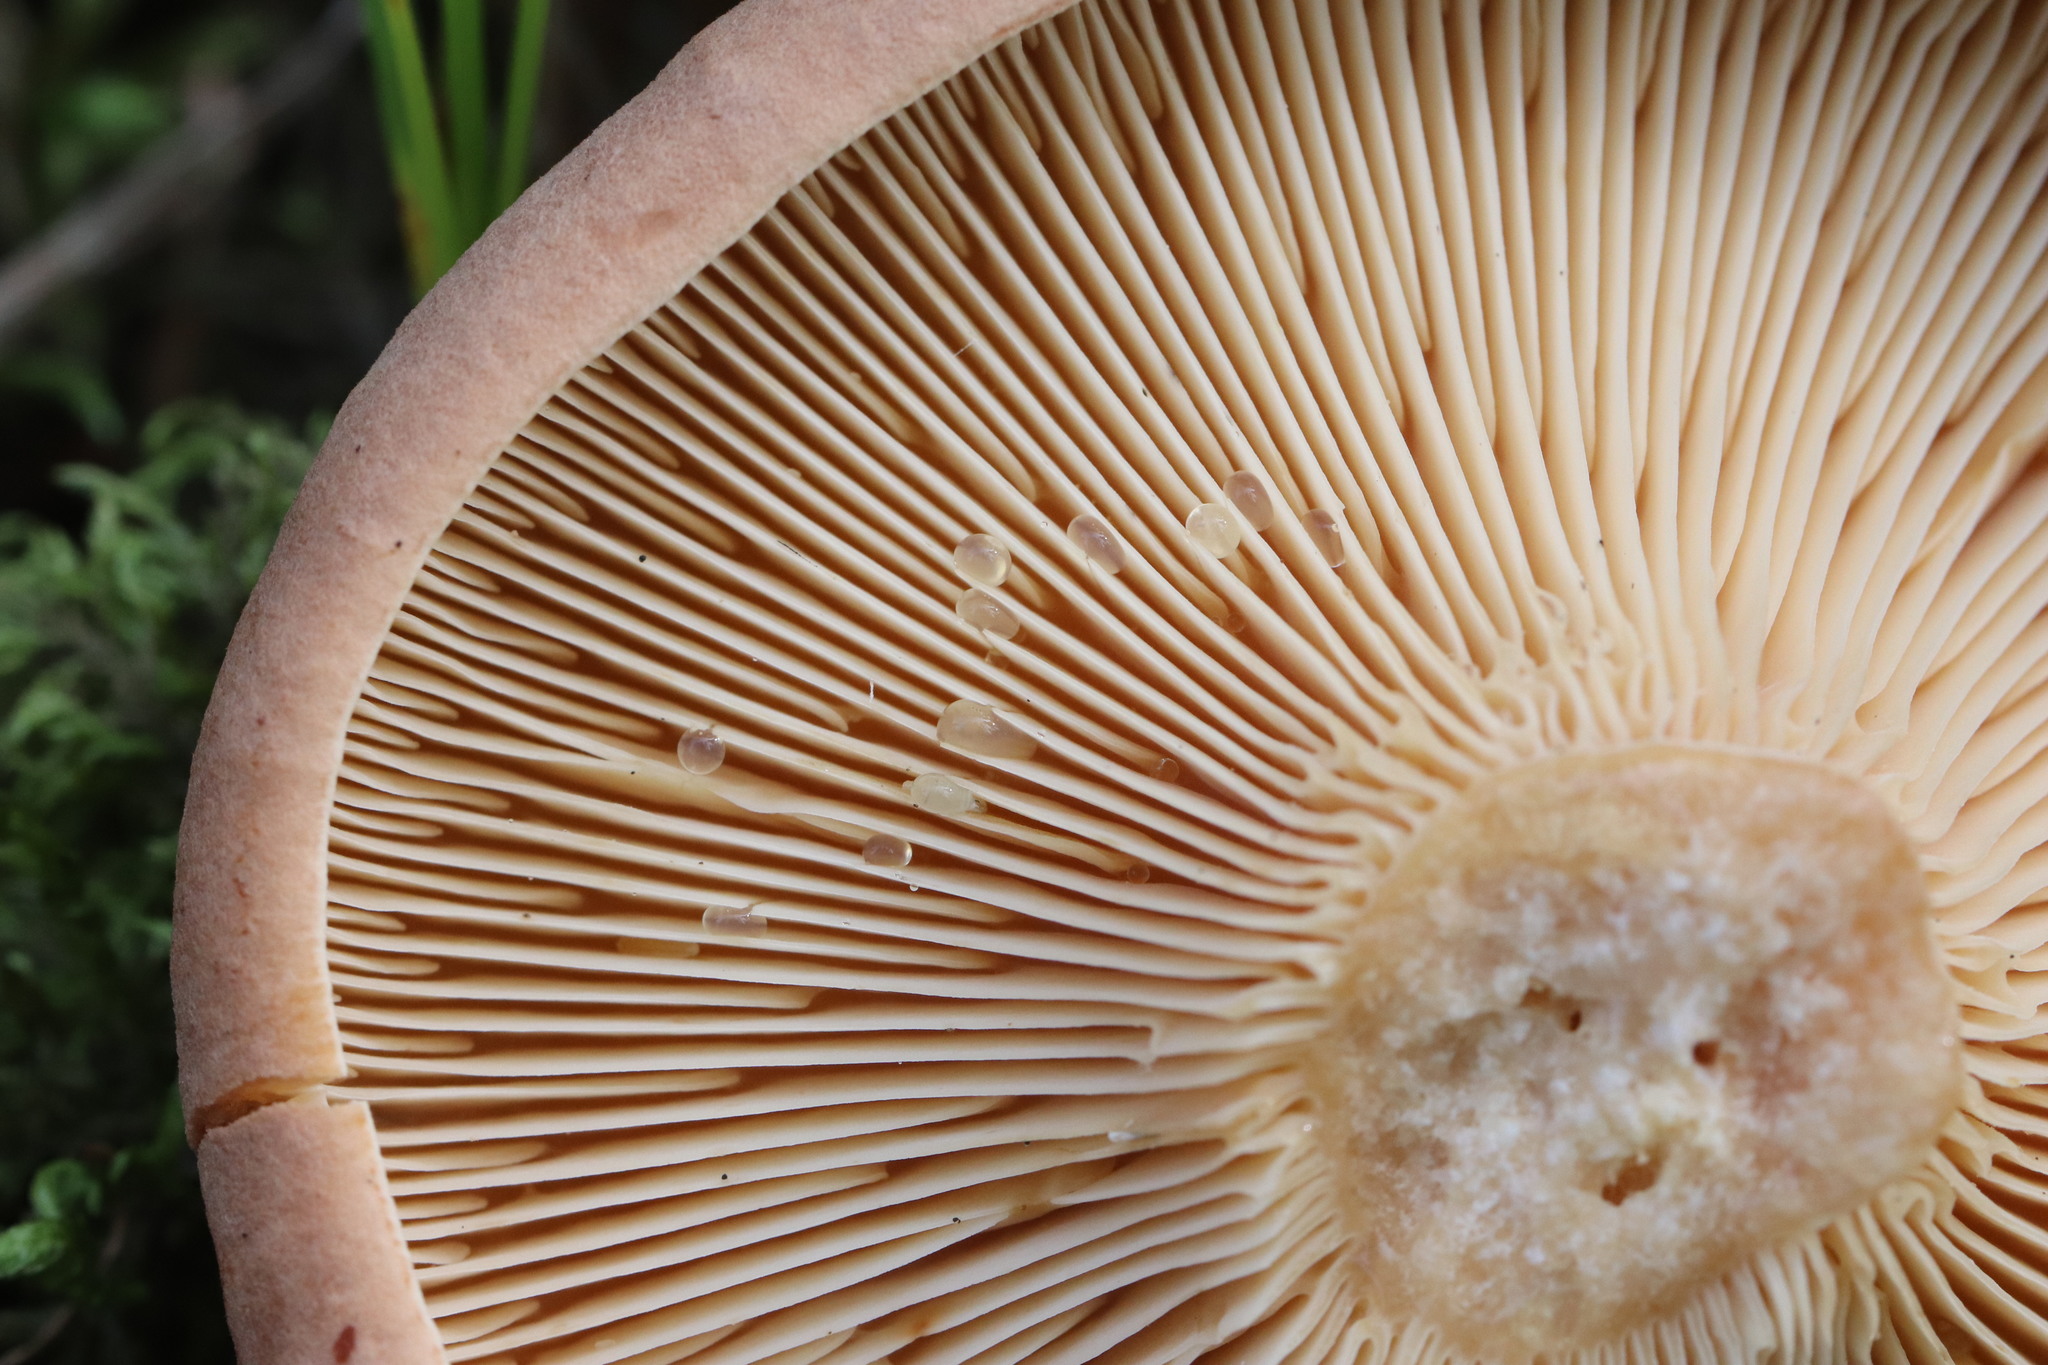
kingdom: Fungi
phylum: Basidiomycota
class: Agaricomycetes
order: Russulales
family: Russulaceae
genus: Lactarius
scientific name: Lactarius helvus
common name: Fenugreek milkcap
